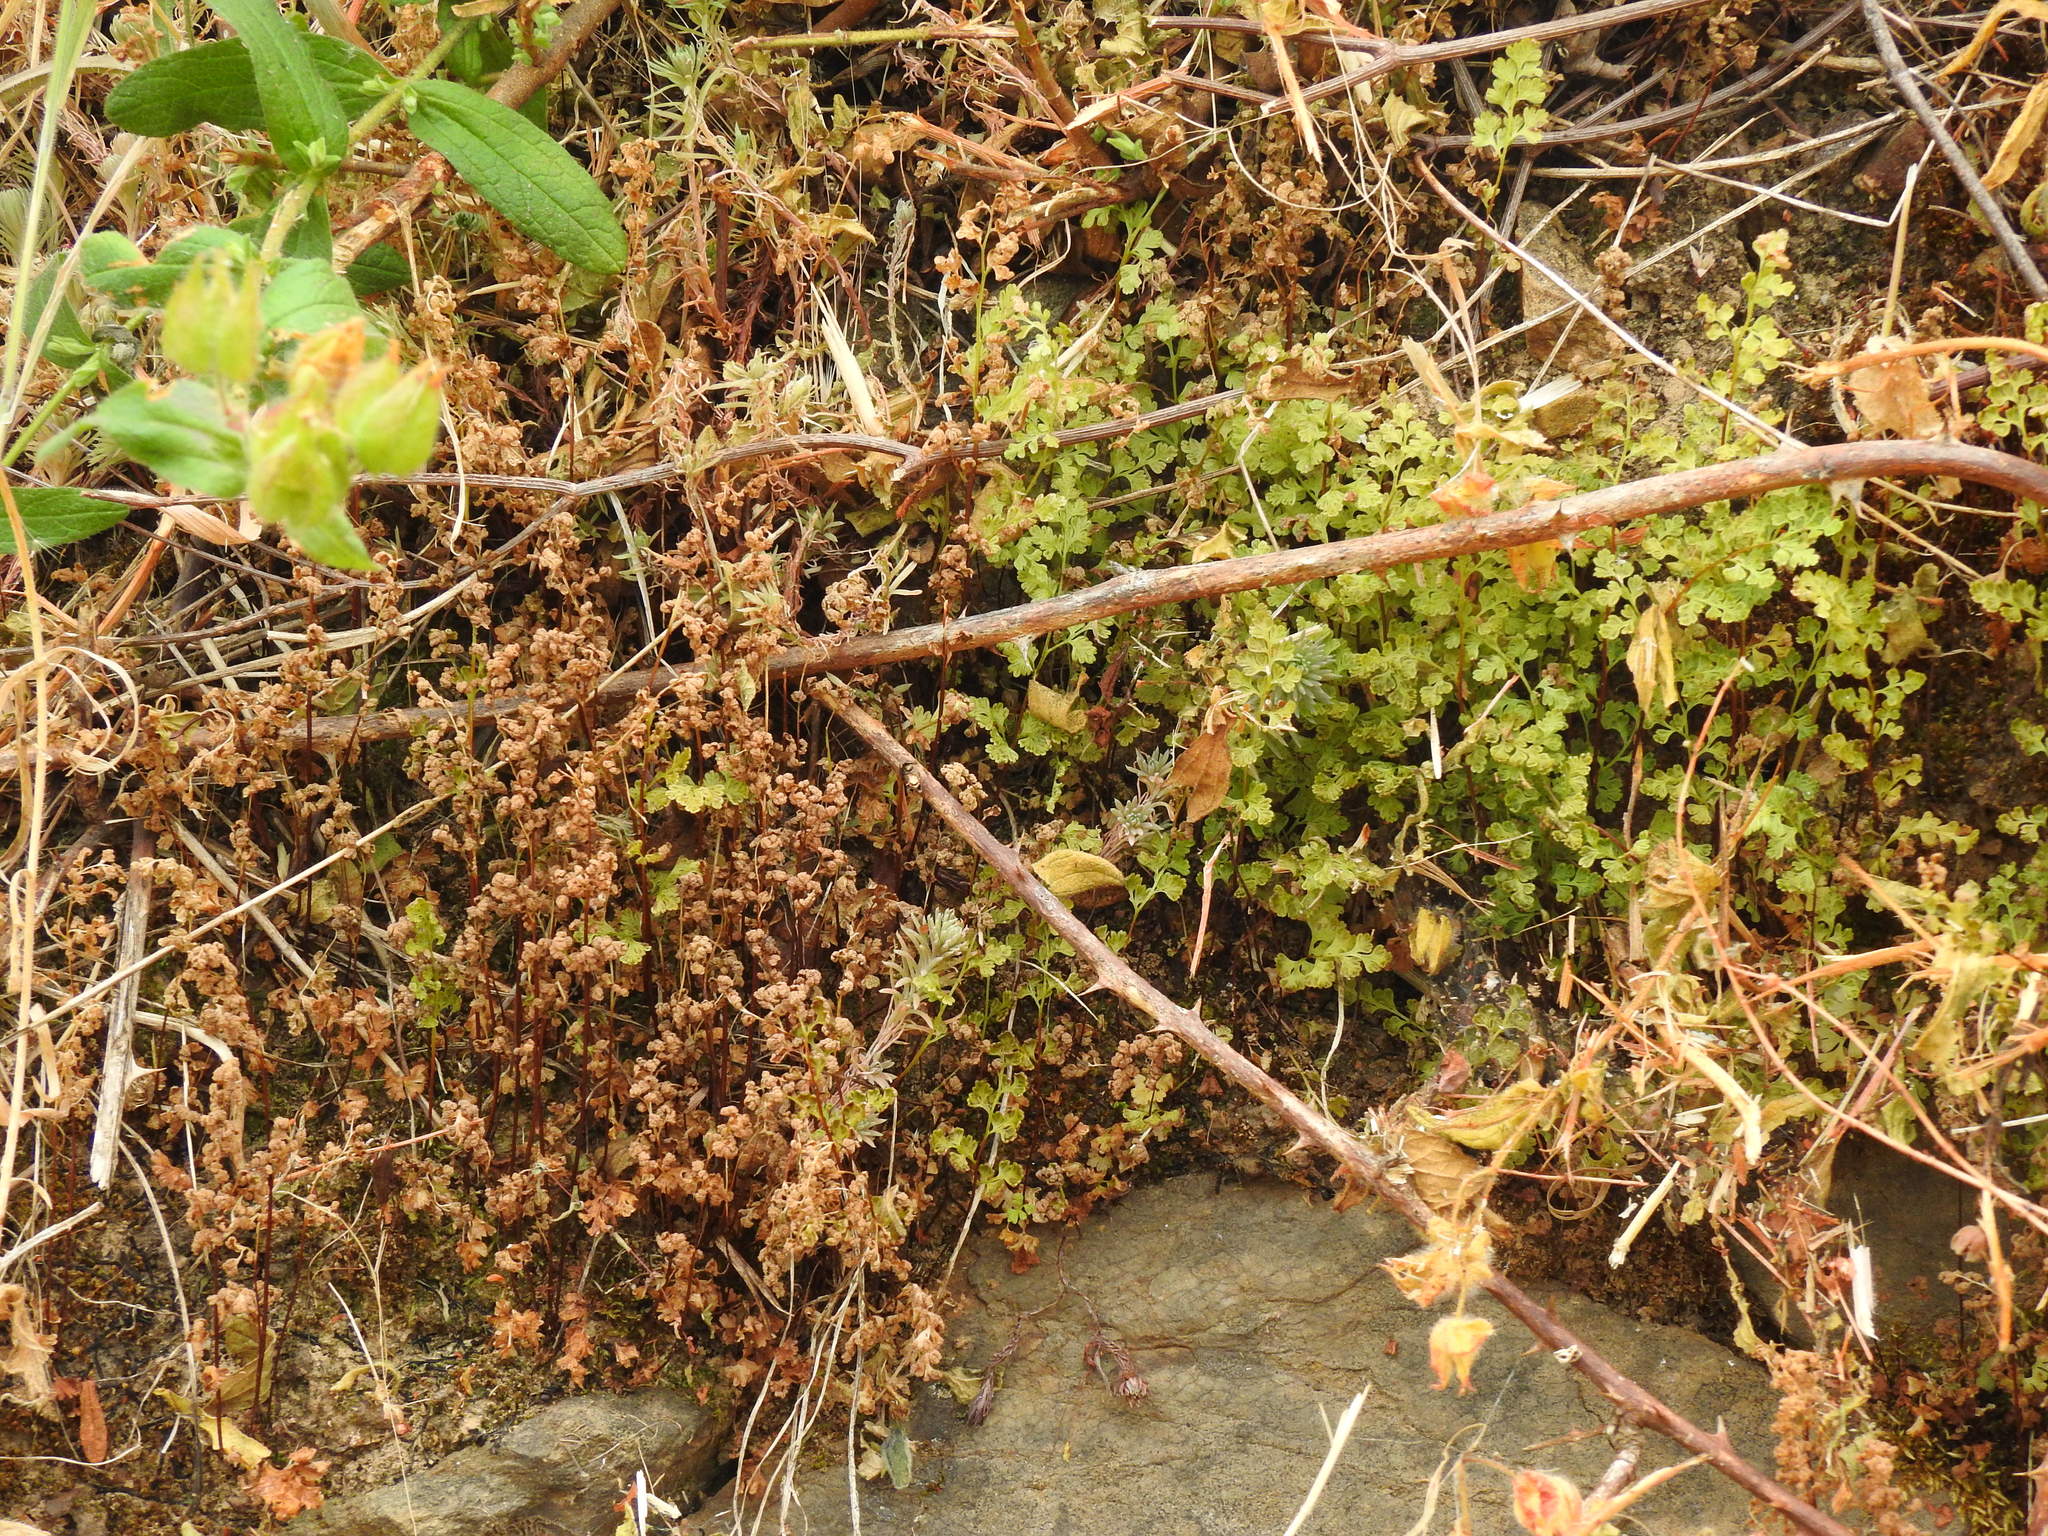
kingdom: Plantae
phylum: Tracheophyta
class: Polypodiopsida
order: Polypodiales
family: Pteridaceae
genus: Anogramma
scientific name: Anogramma leptophylla
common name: Jersey fern
